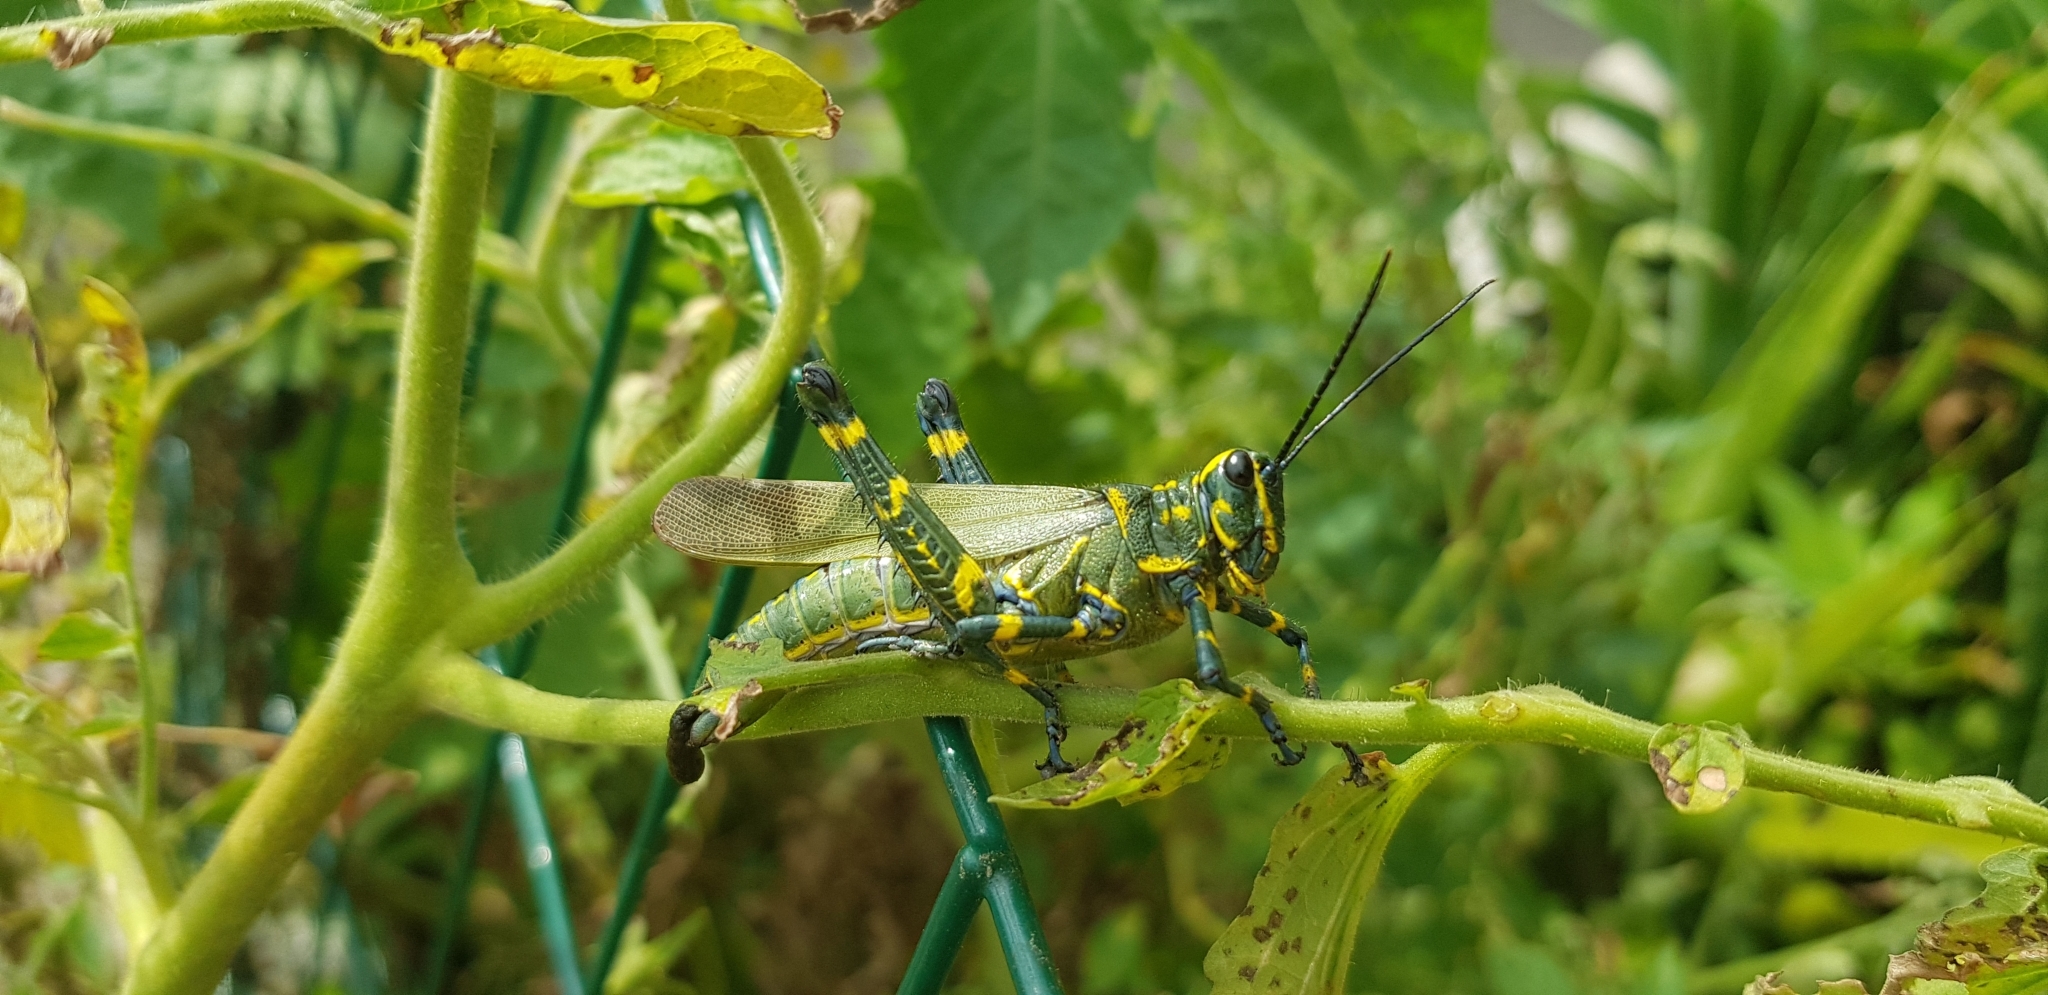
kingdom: Animalia
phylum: Arthropoda
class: Insecta
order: Orthoptera
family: Romaleidae
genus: Chromacris
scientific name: Chromacris speciosa
